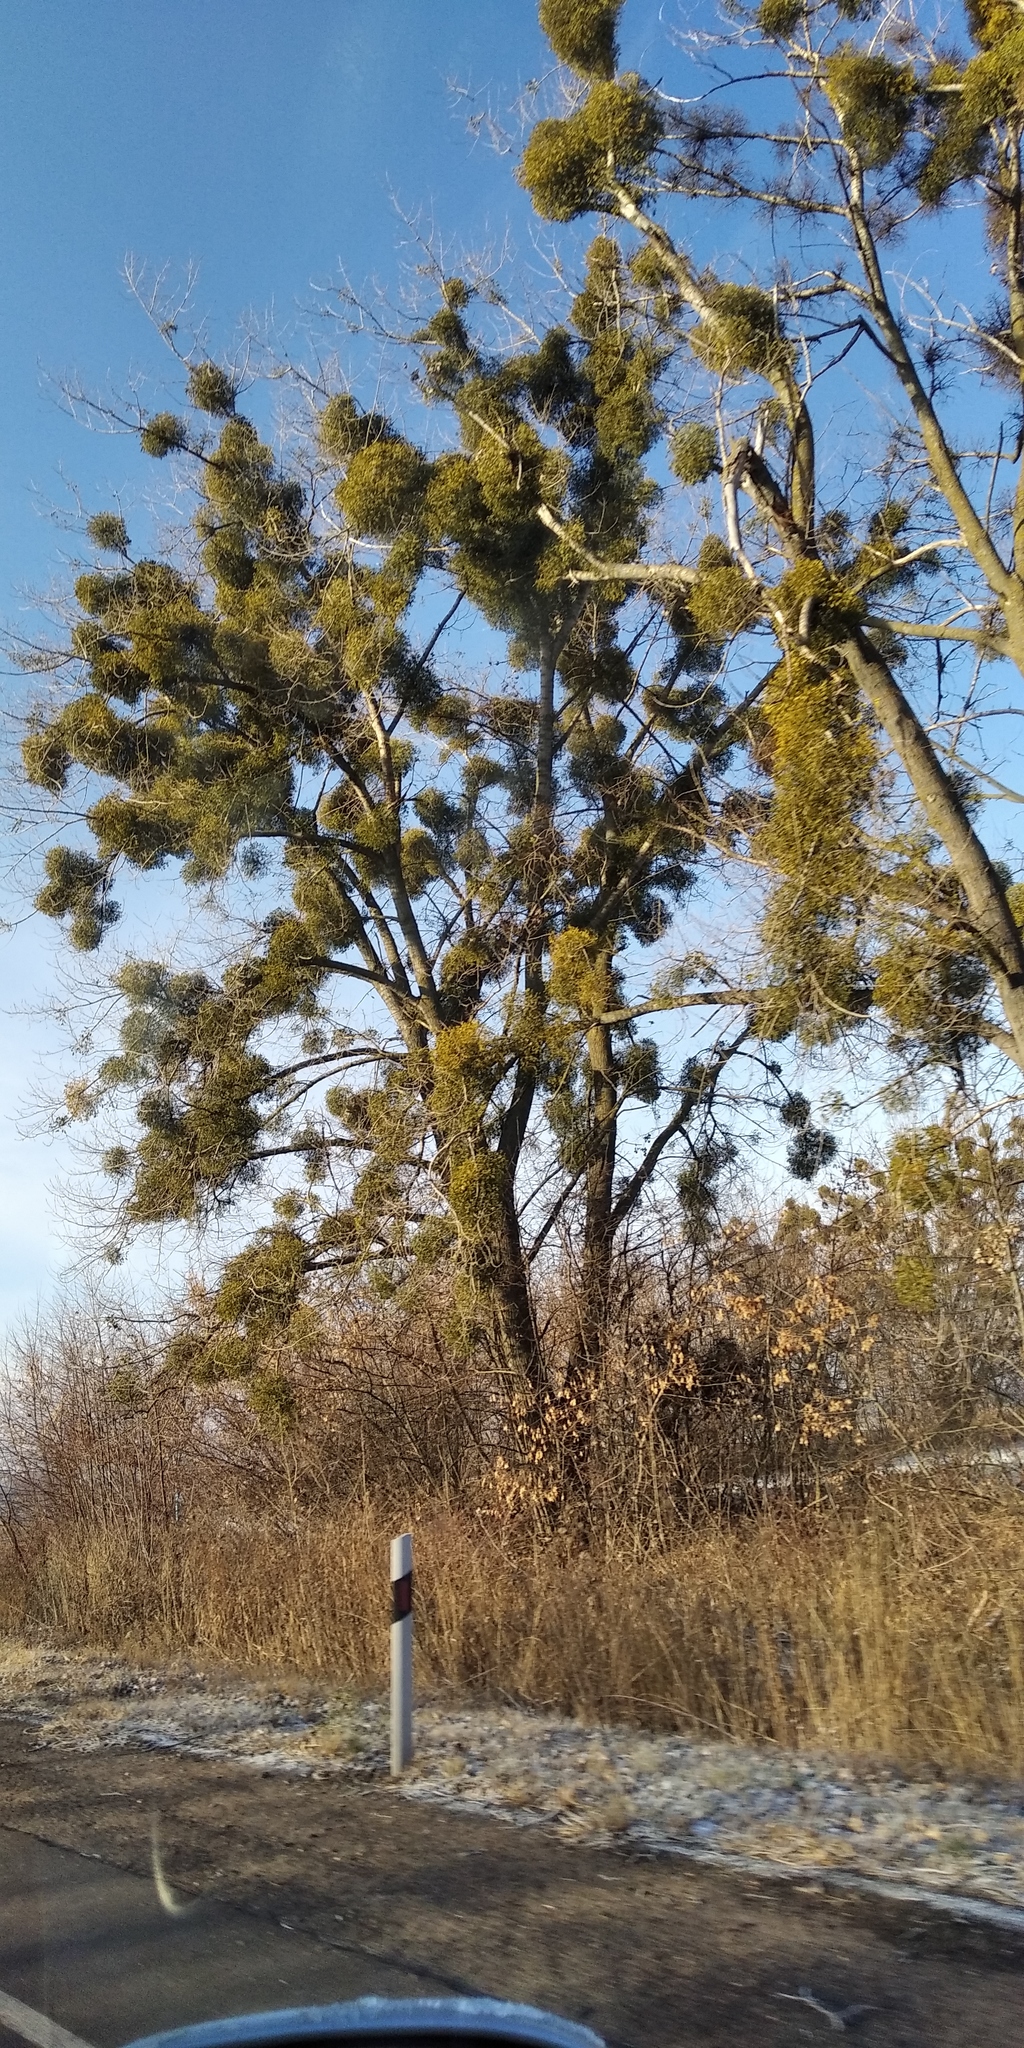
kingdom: Plantae
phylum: Tracheophyta
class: Magnoliopsida
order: Santalales
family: Viscaceae
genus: Viscum
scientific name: Viscum album
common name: Mistletoe
